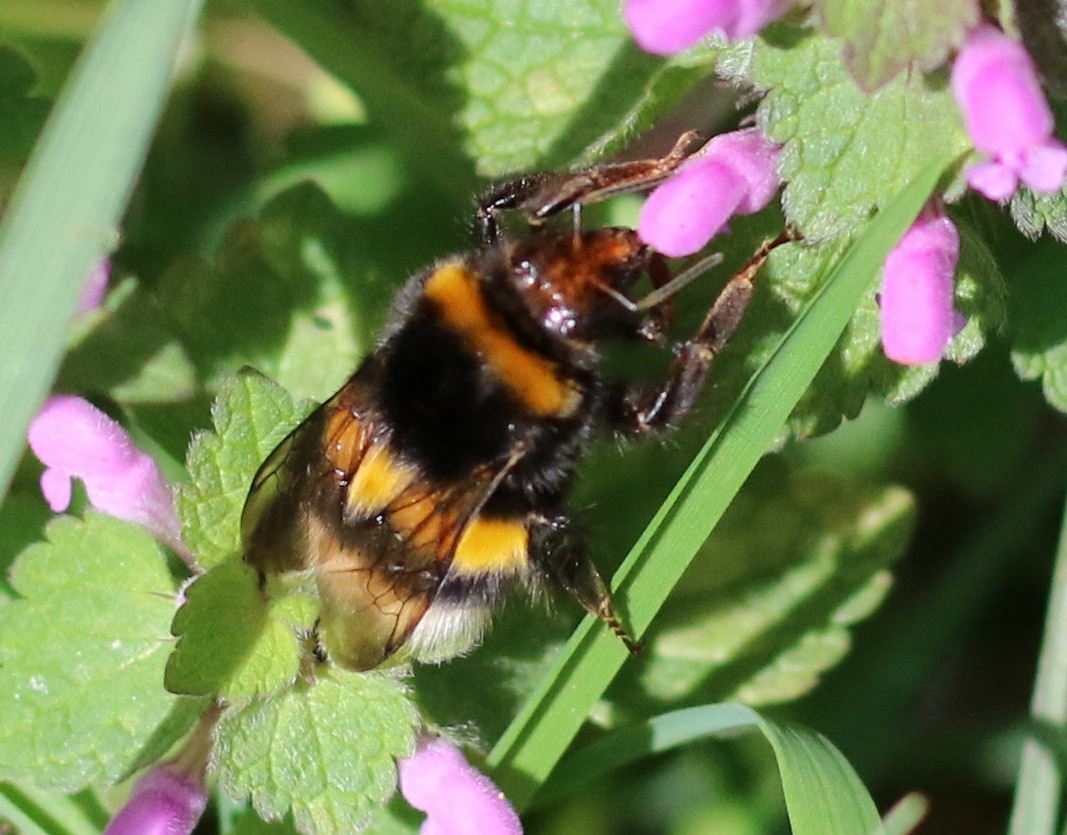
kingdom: Animalia
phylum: Arthropoda
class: Insecta
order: Hymenoptera
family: Apidae
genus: Bombus
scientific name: Bombus
